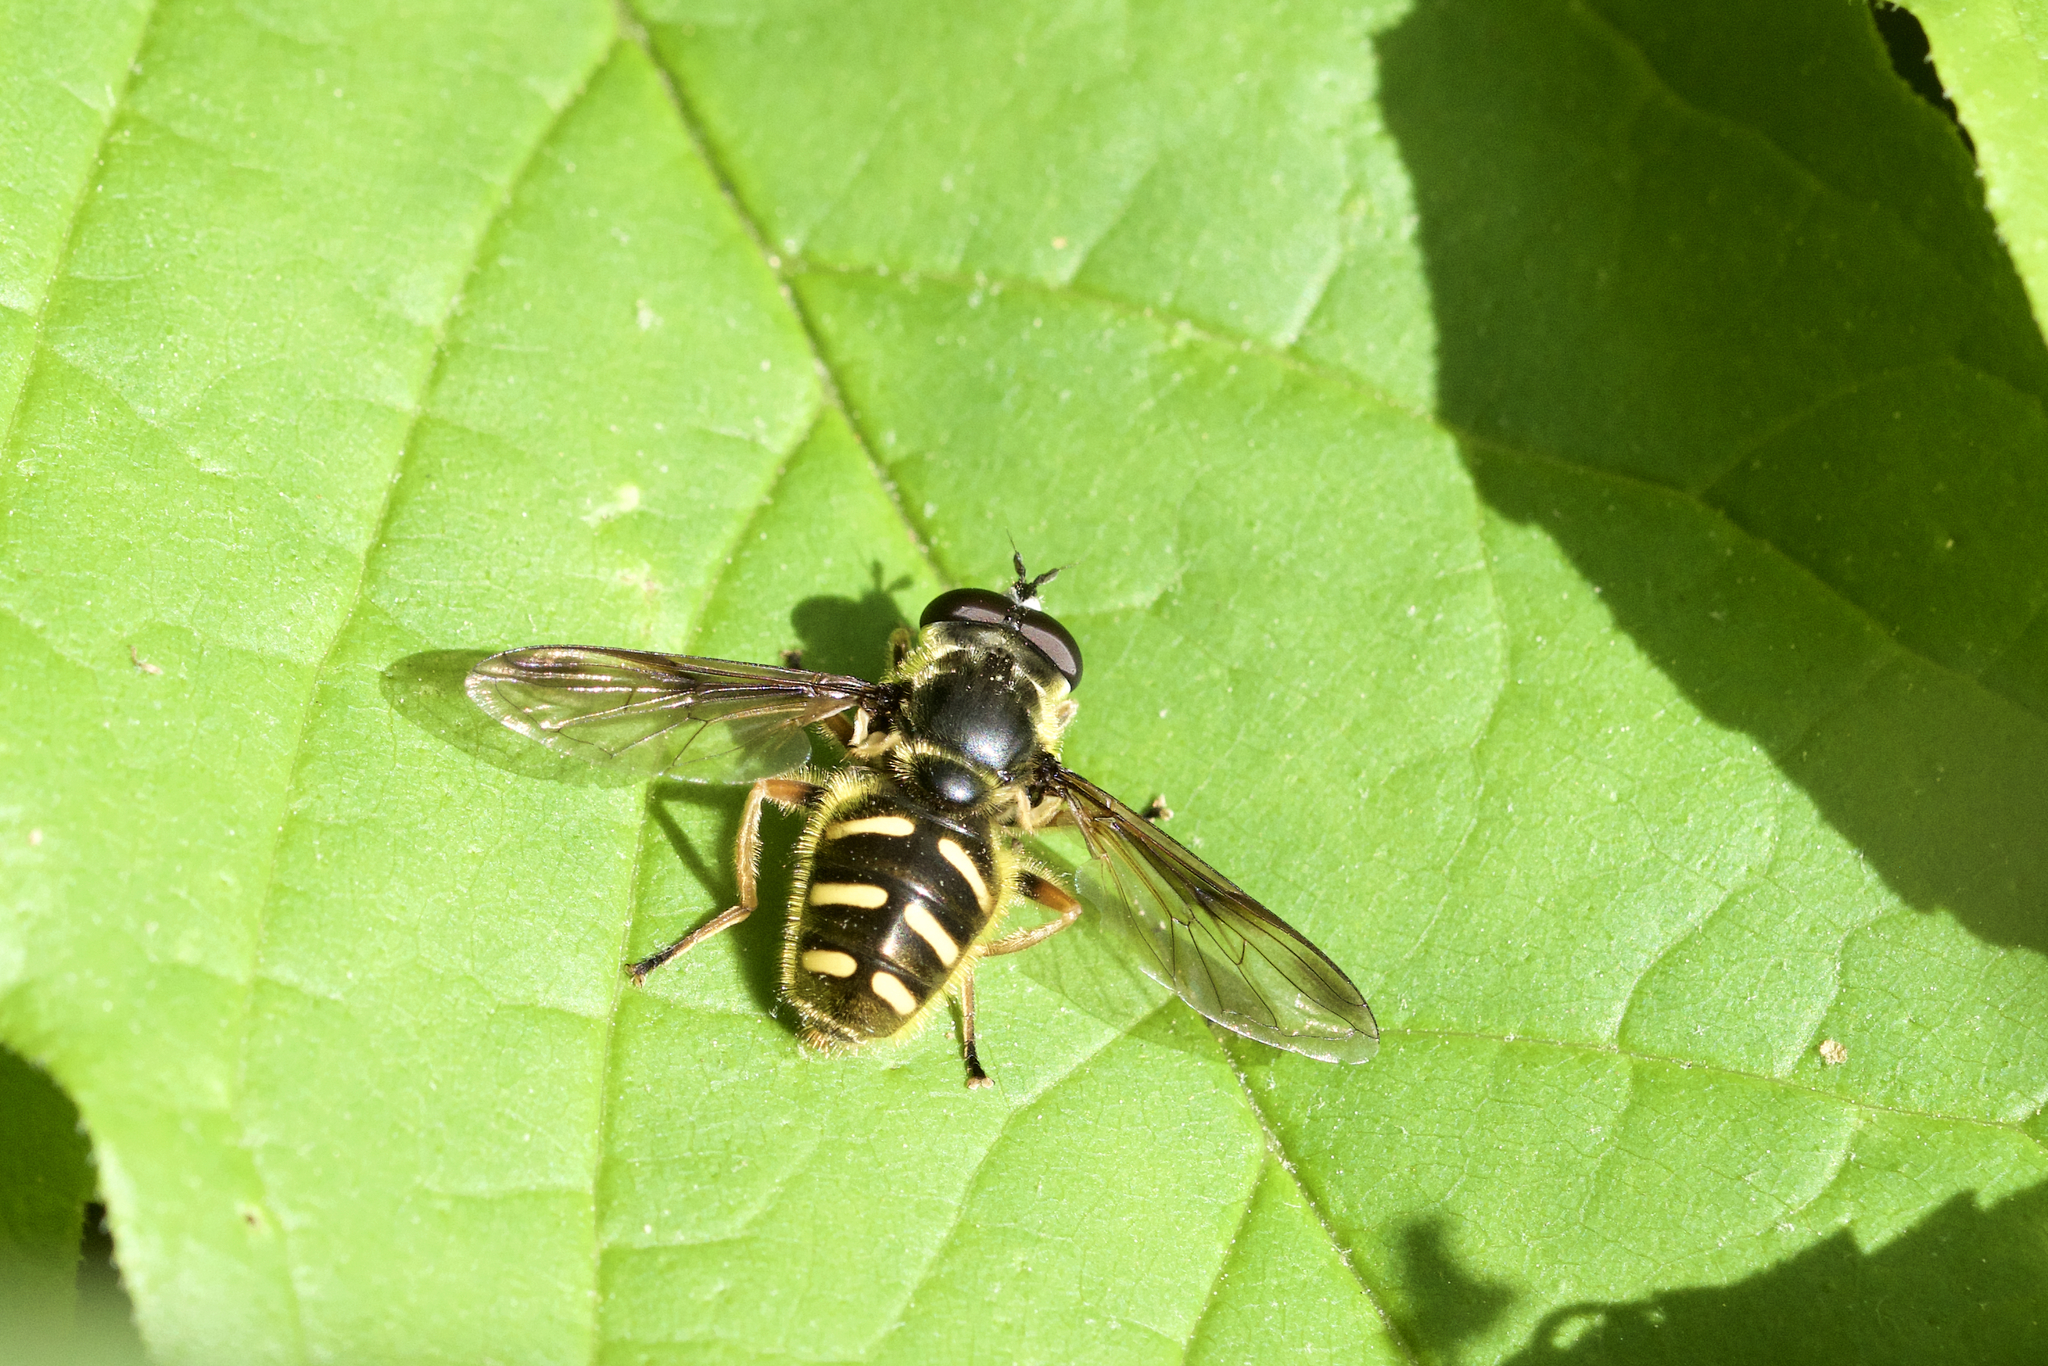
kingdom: Animalia
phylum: Arthropoda
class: Insecta
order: Diptera
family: Syrphidae
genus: Sericomyia
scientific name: Sericomyia chrysotoxoides
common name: Oblique-banded pond fly
